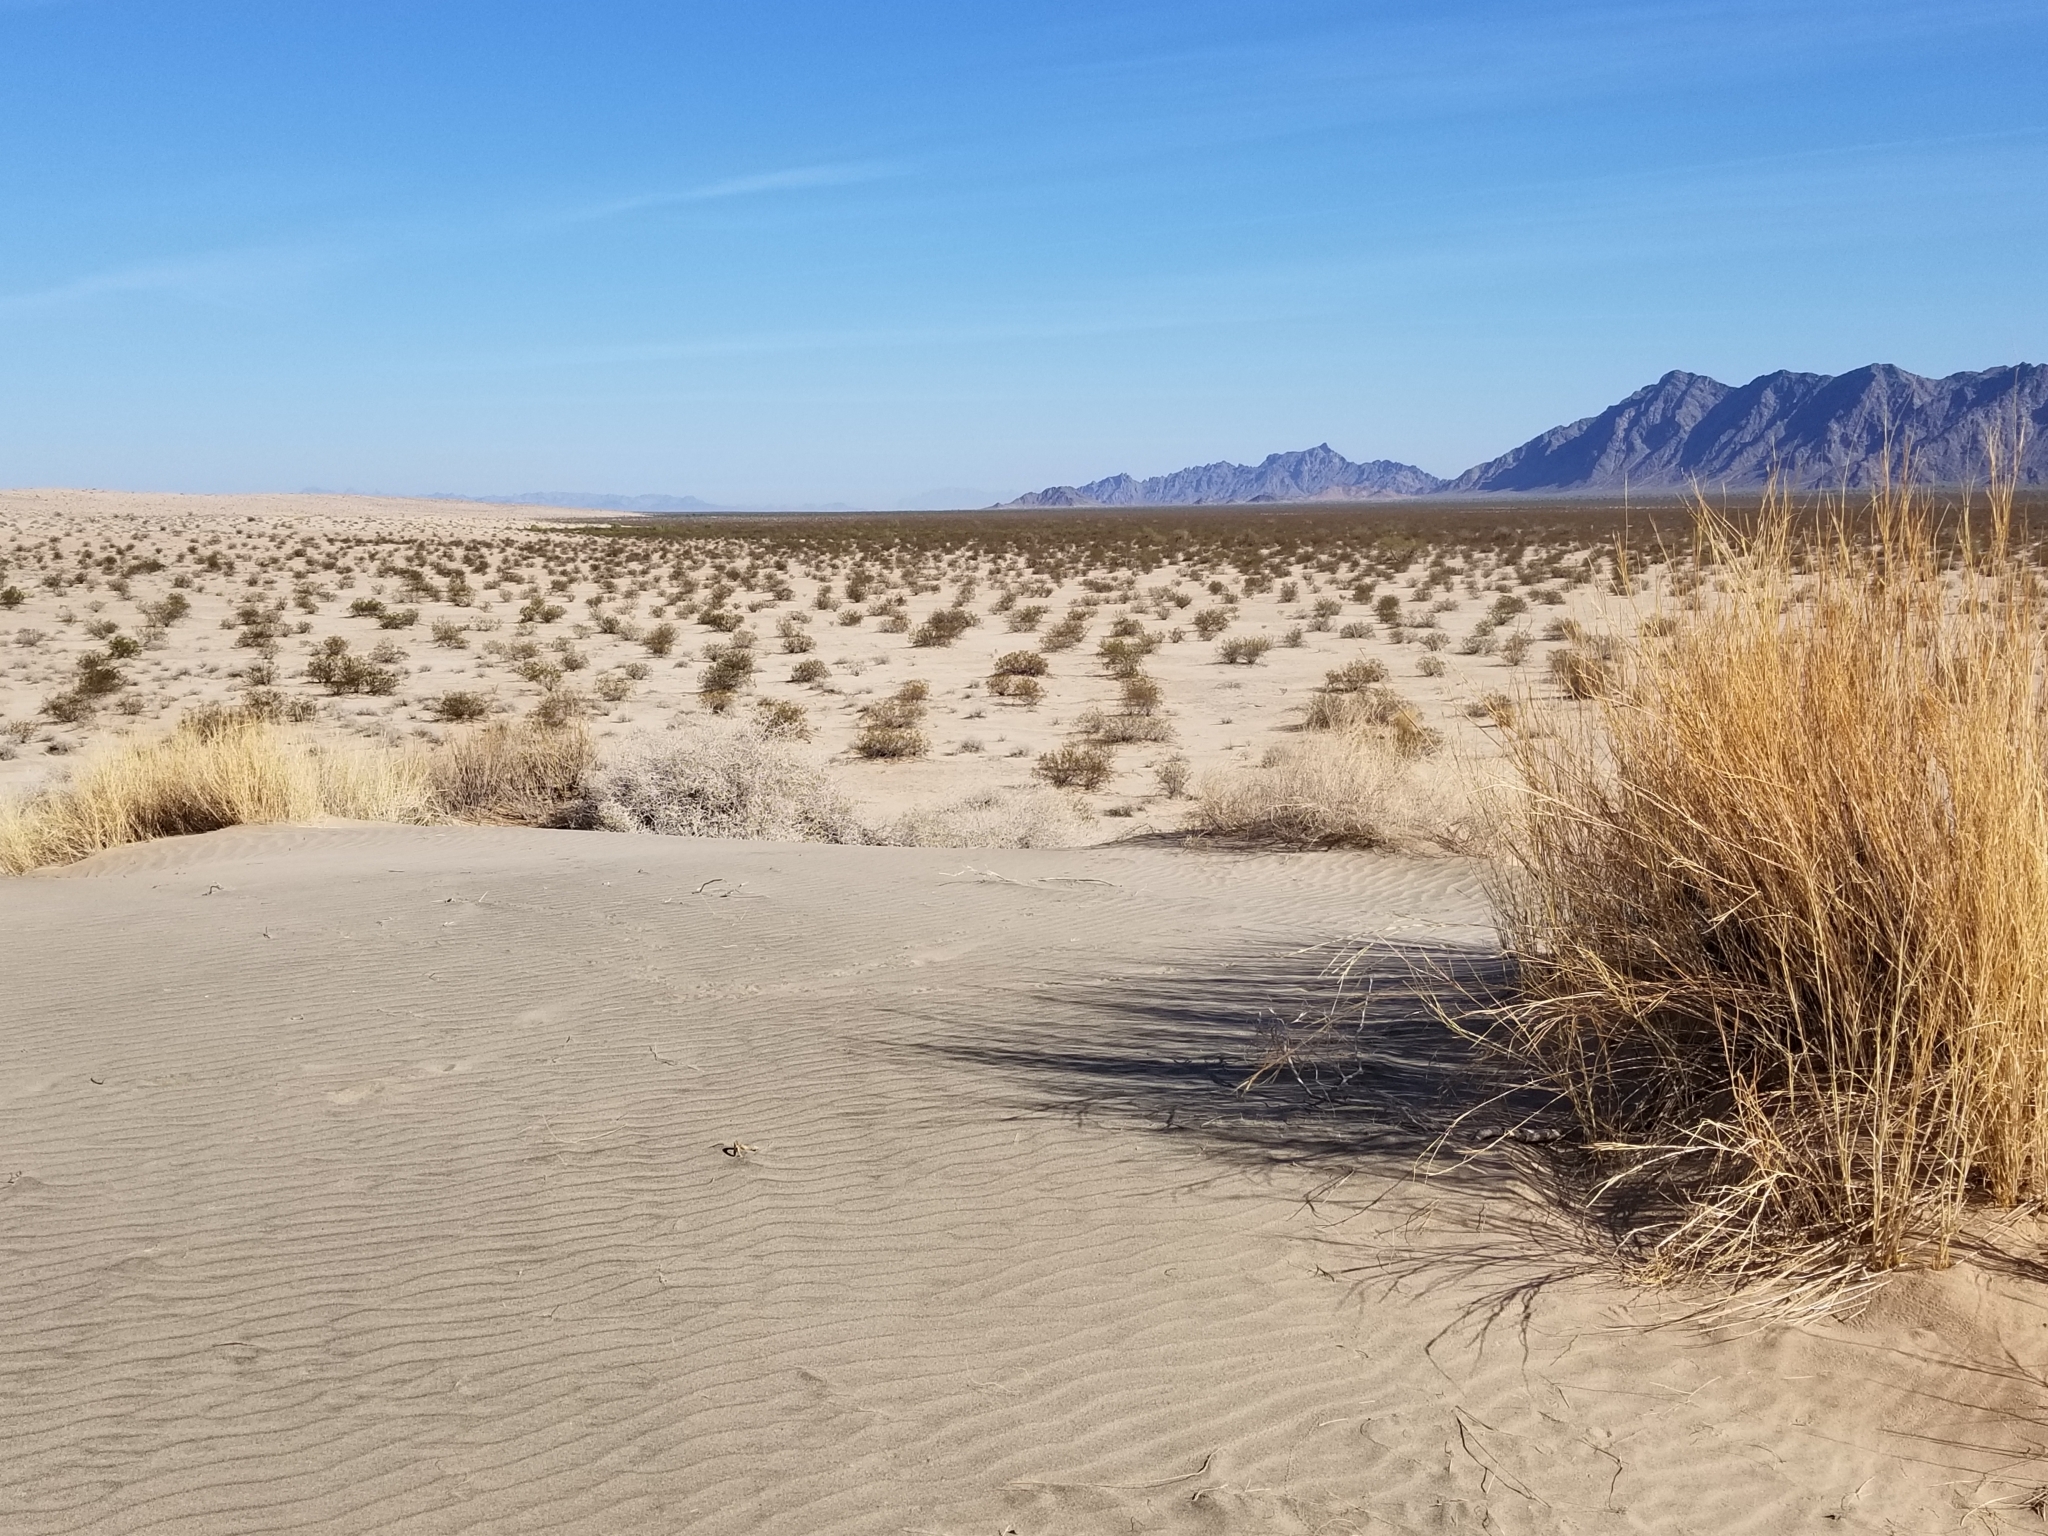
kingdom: Plantae
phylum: Tracheophyta
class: Liliopsida
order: Poales
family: Poaceae
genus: Hilaria
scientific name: Hilaria rigida
